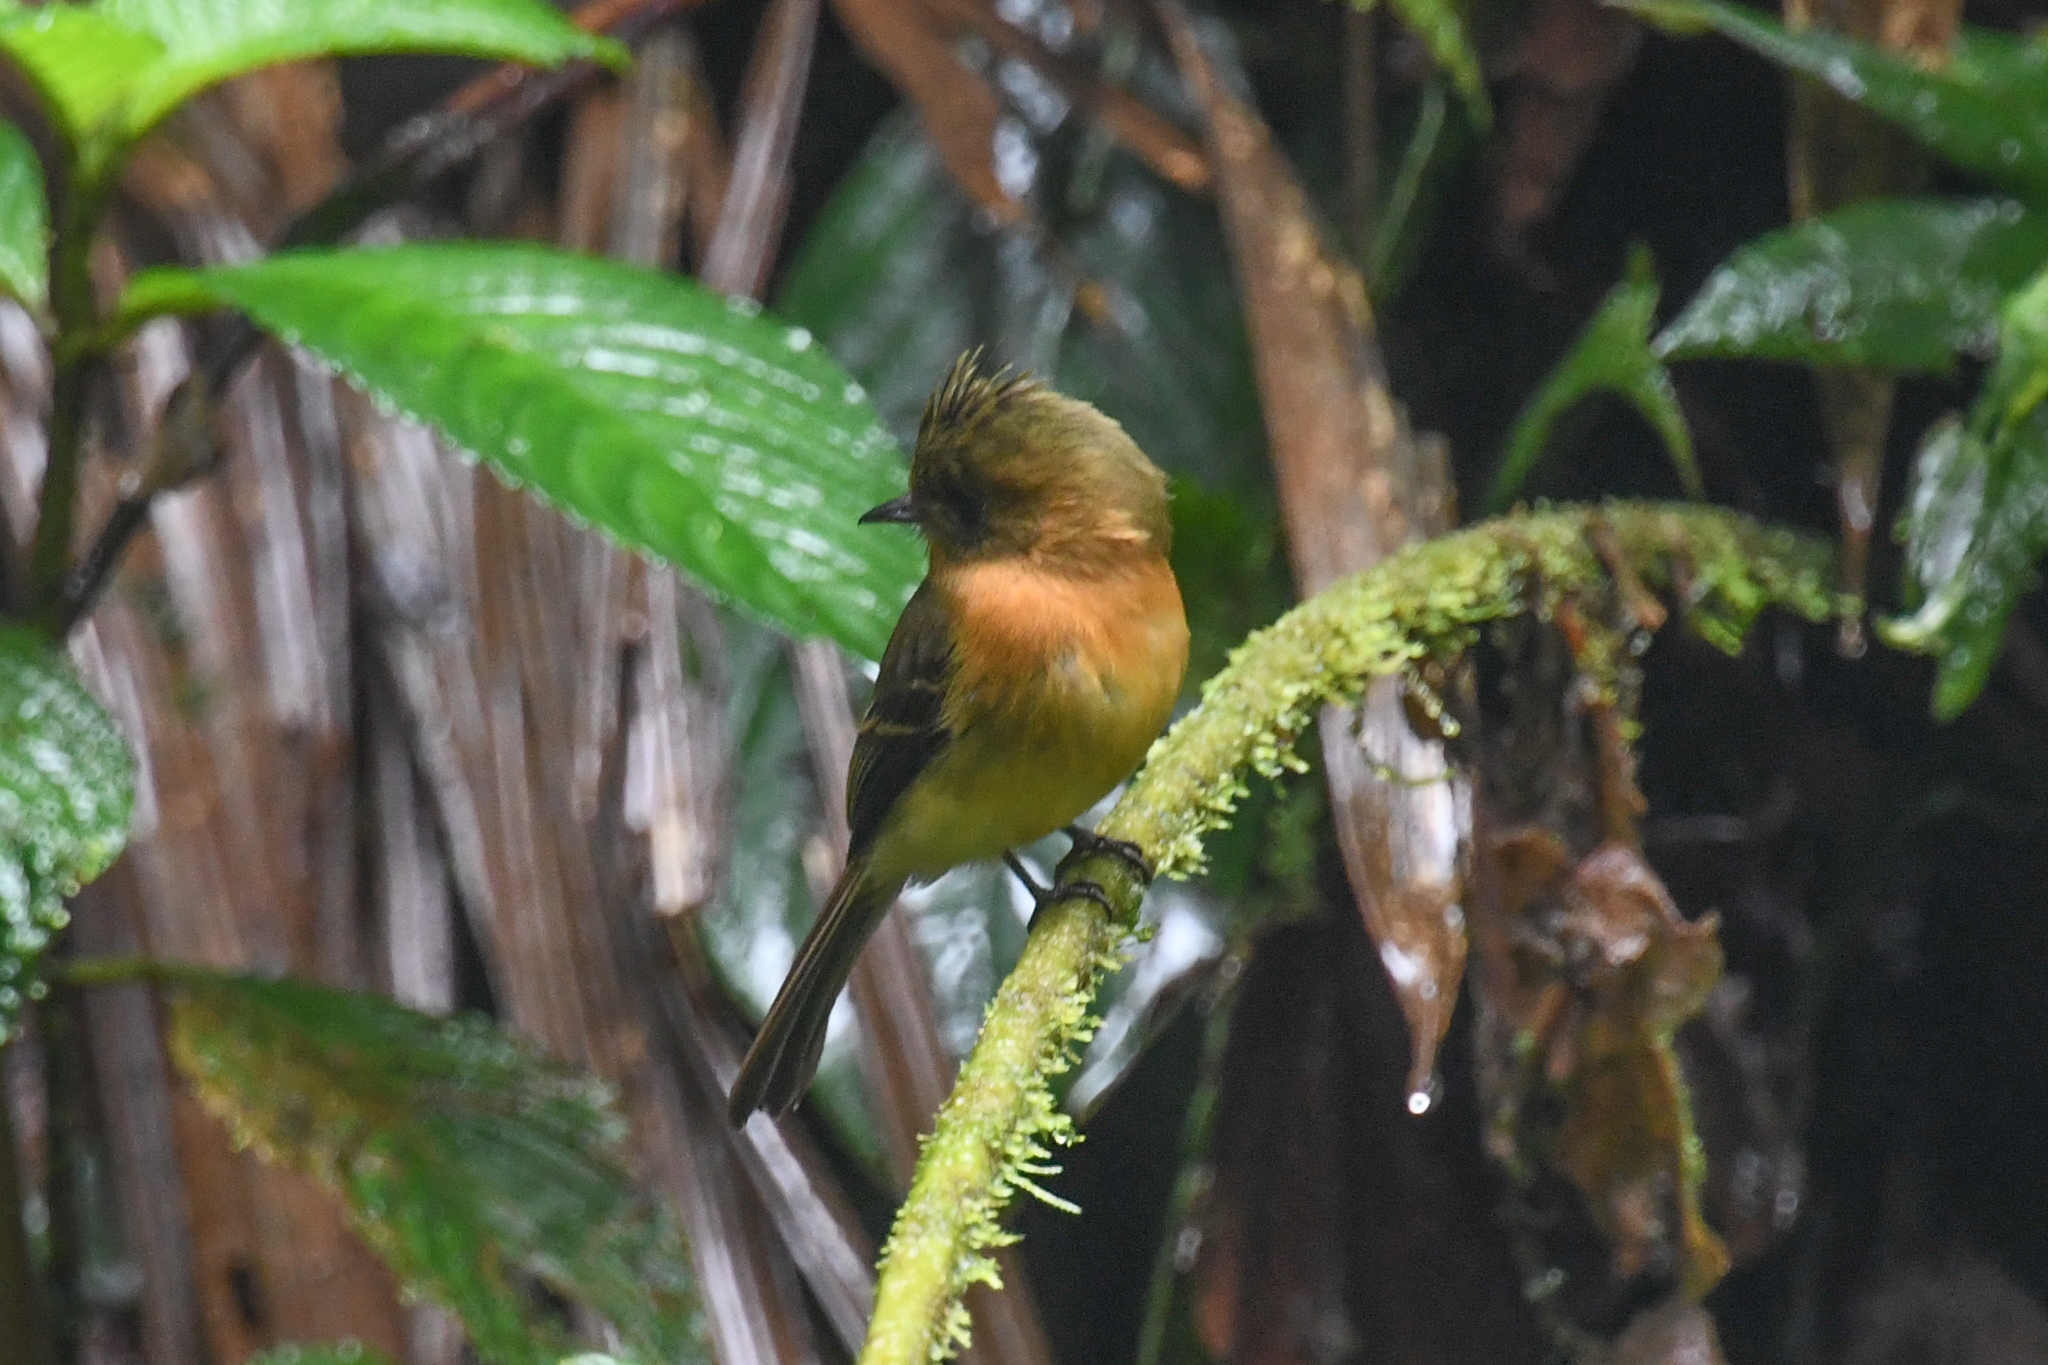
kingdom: Animalia
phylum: Chordata
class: Aves
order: Passeriformes
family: Tyrannidae
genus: Mitrephanes
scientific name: Mitrephanes phaeocercus
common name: Northern tufted flycatcher
